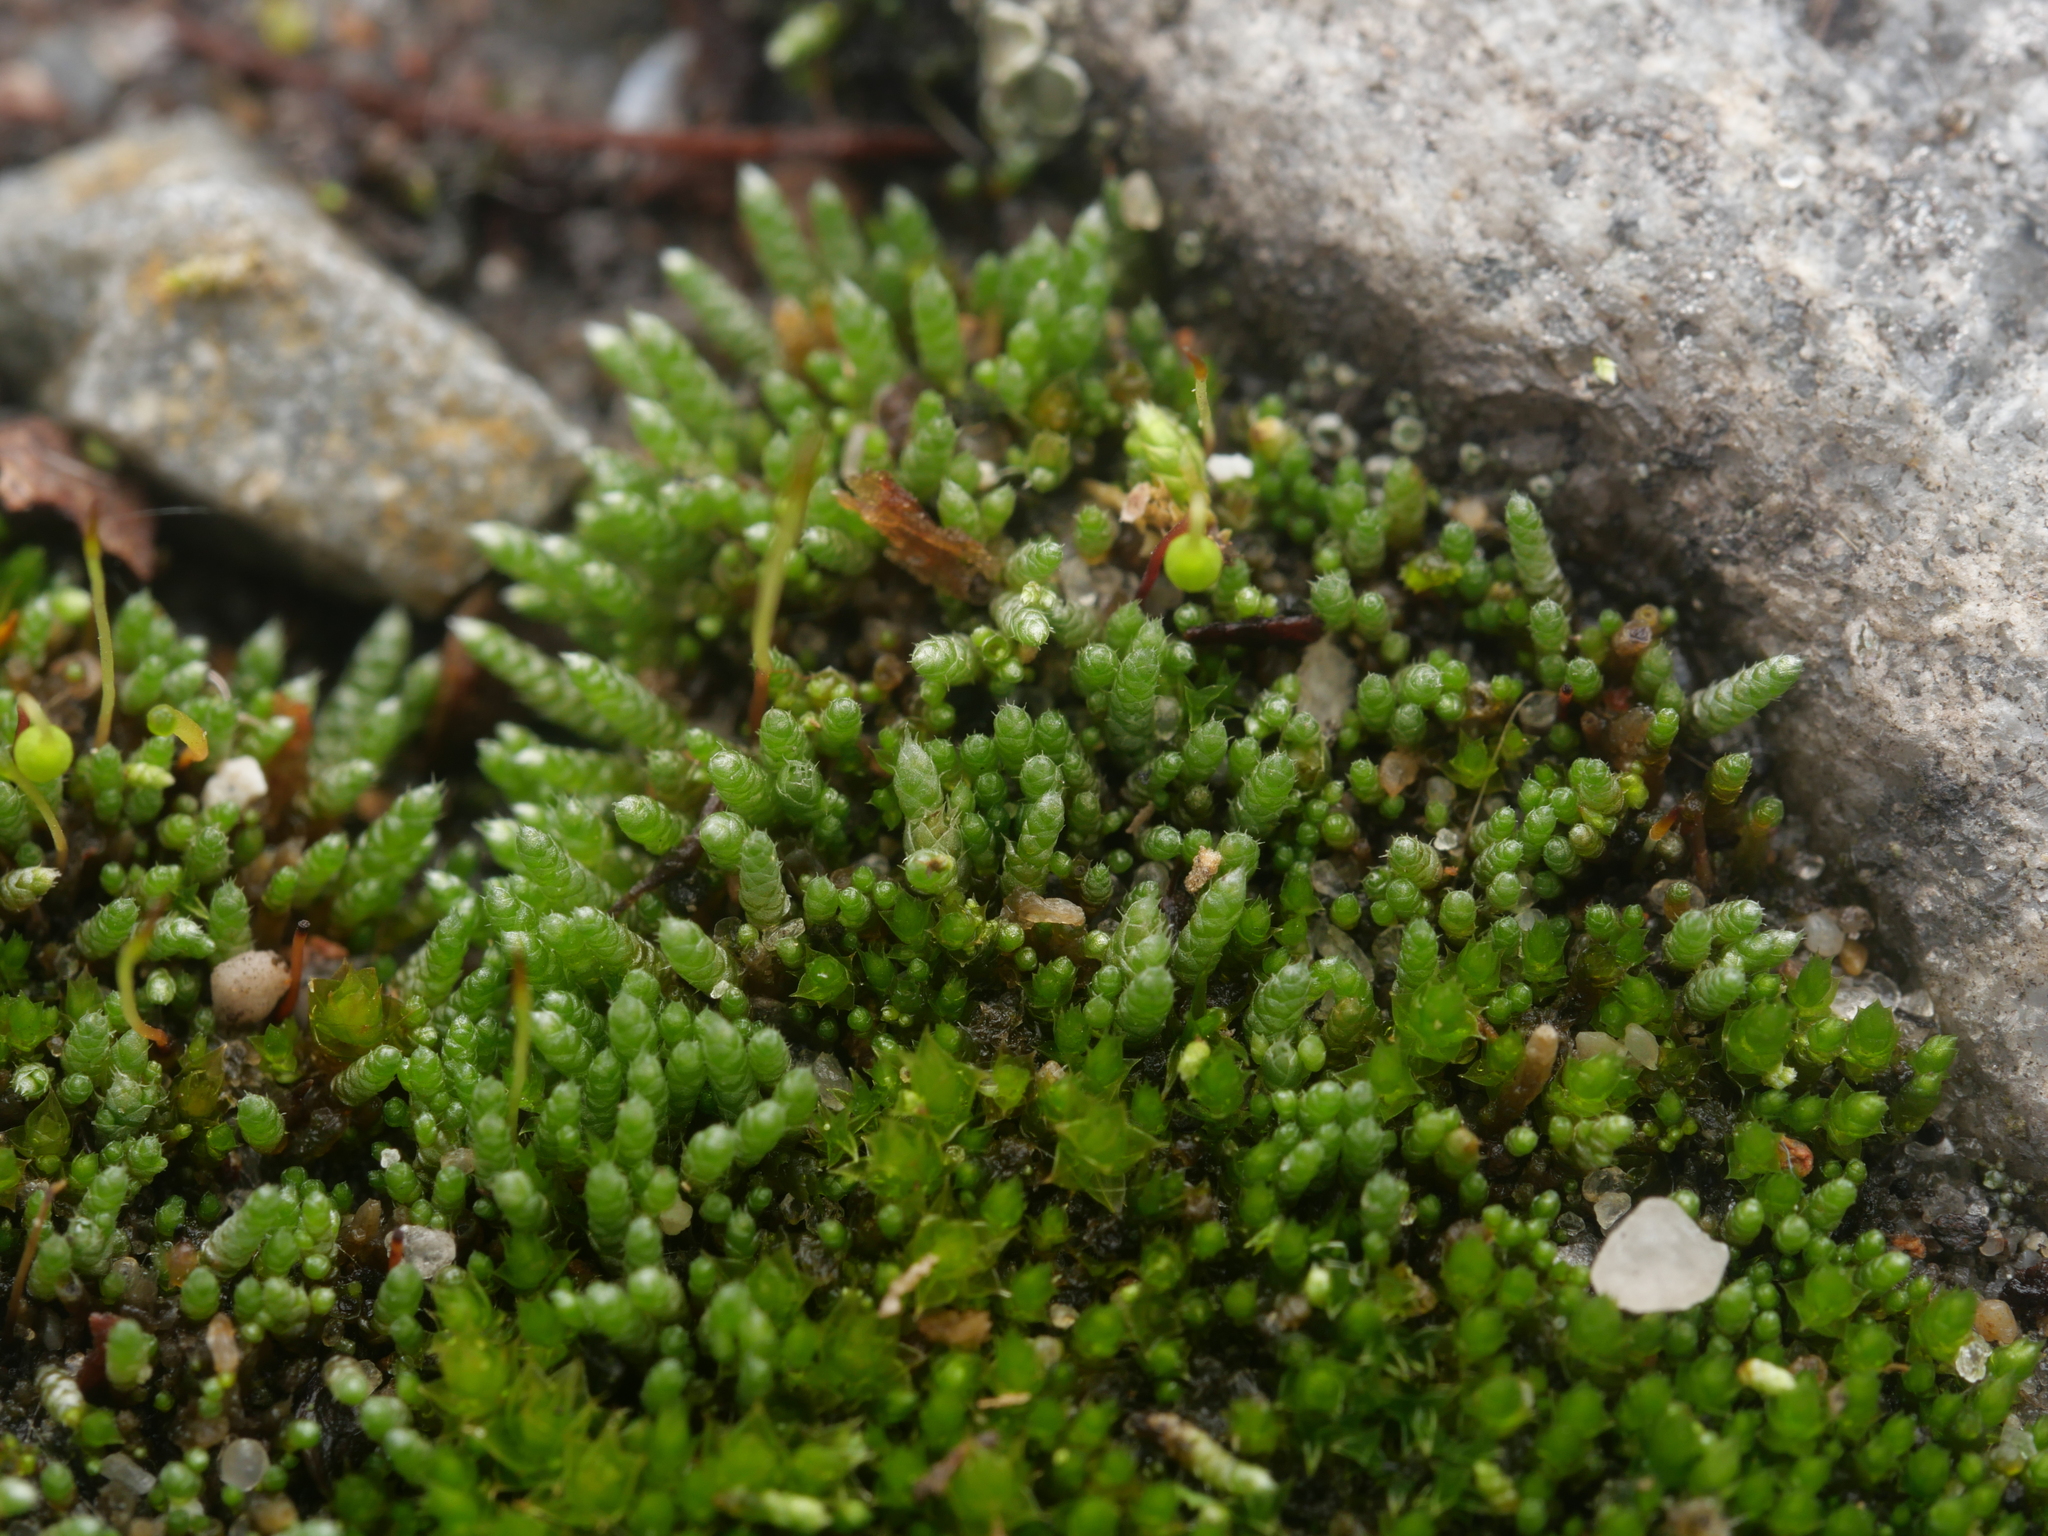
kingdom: Plantae
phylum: Bryophyta
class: Bryopsida
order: Bryales
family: Bryaceae
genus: Bryum
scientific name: Bryum argenteum
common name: Silver-moss
